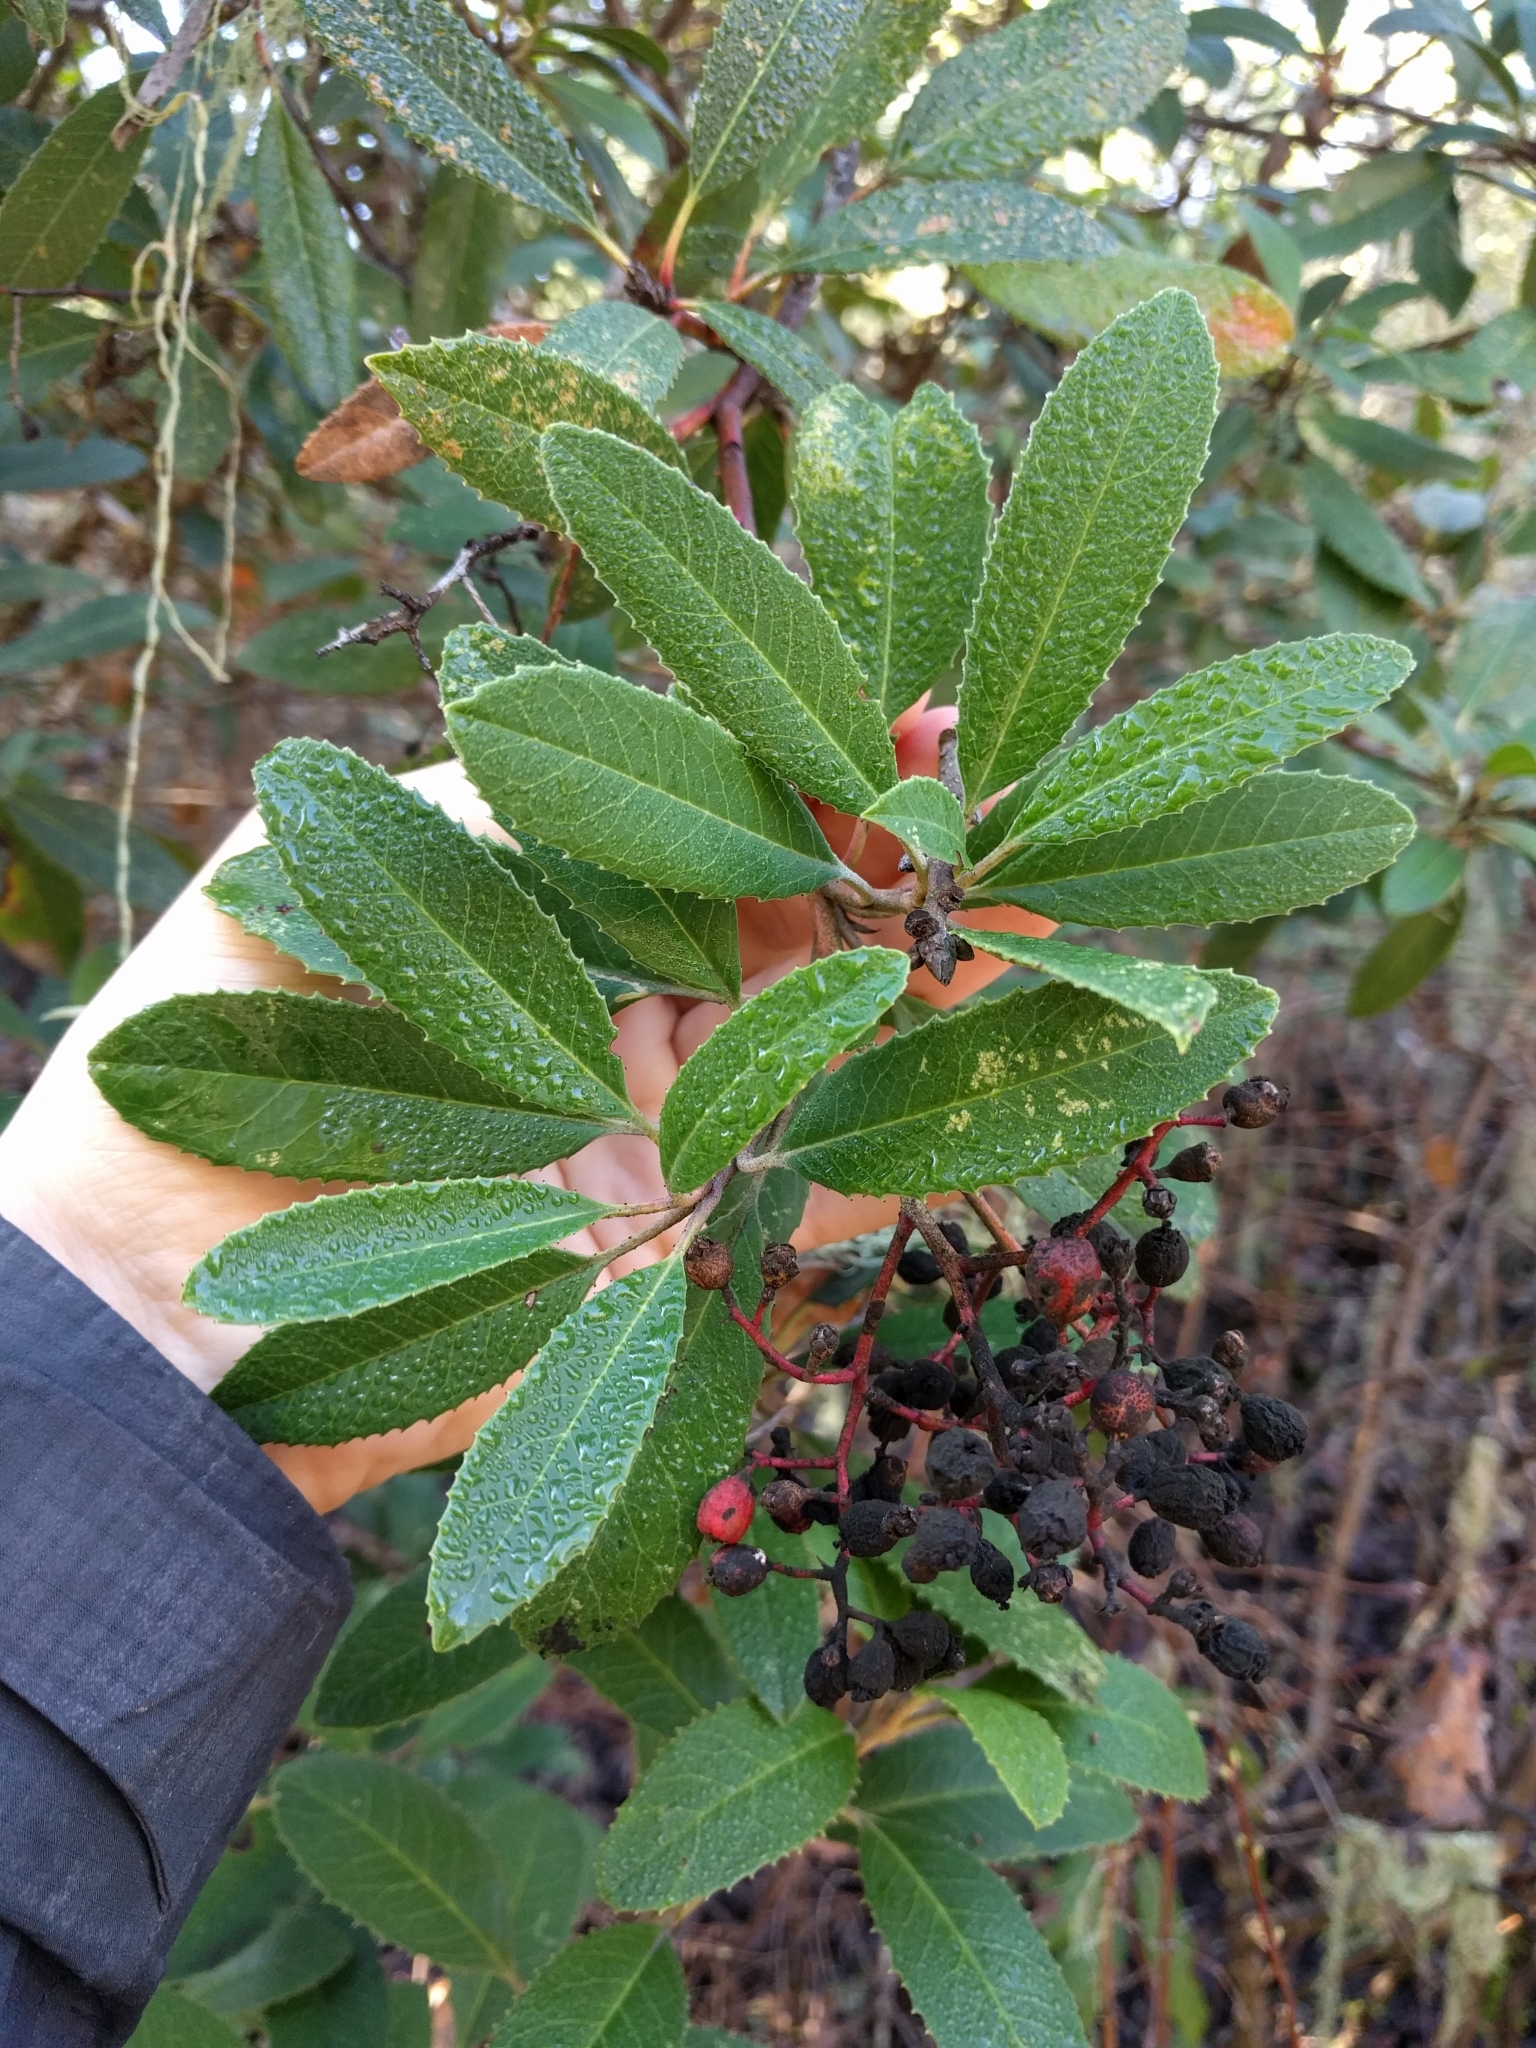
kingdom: Plantae
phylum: Tracheophyta
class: Magnoliopsida
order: Rosales
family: Rosaceae
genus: Heteromeles
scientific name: Heteromeles arbutifolia
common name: California-holly
